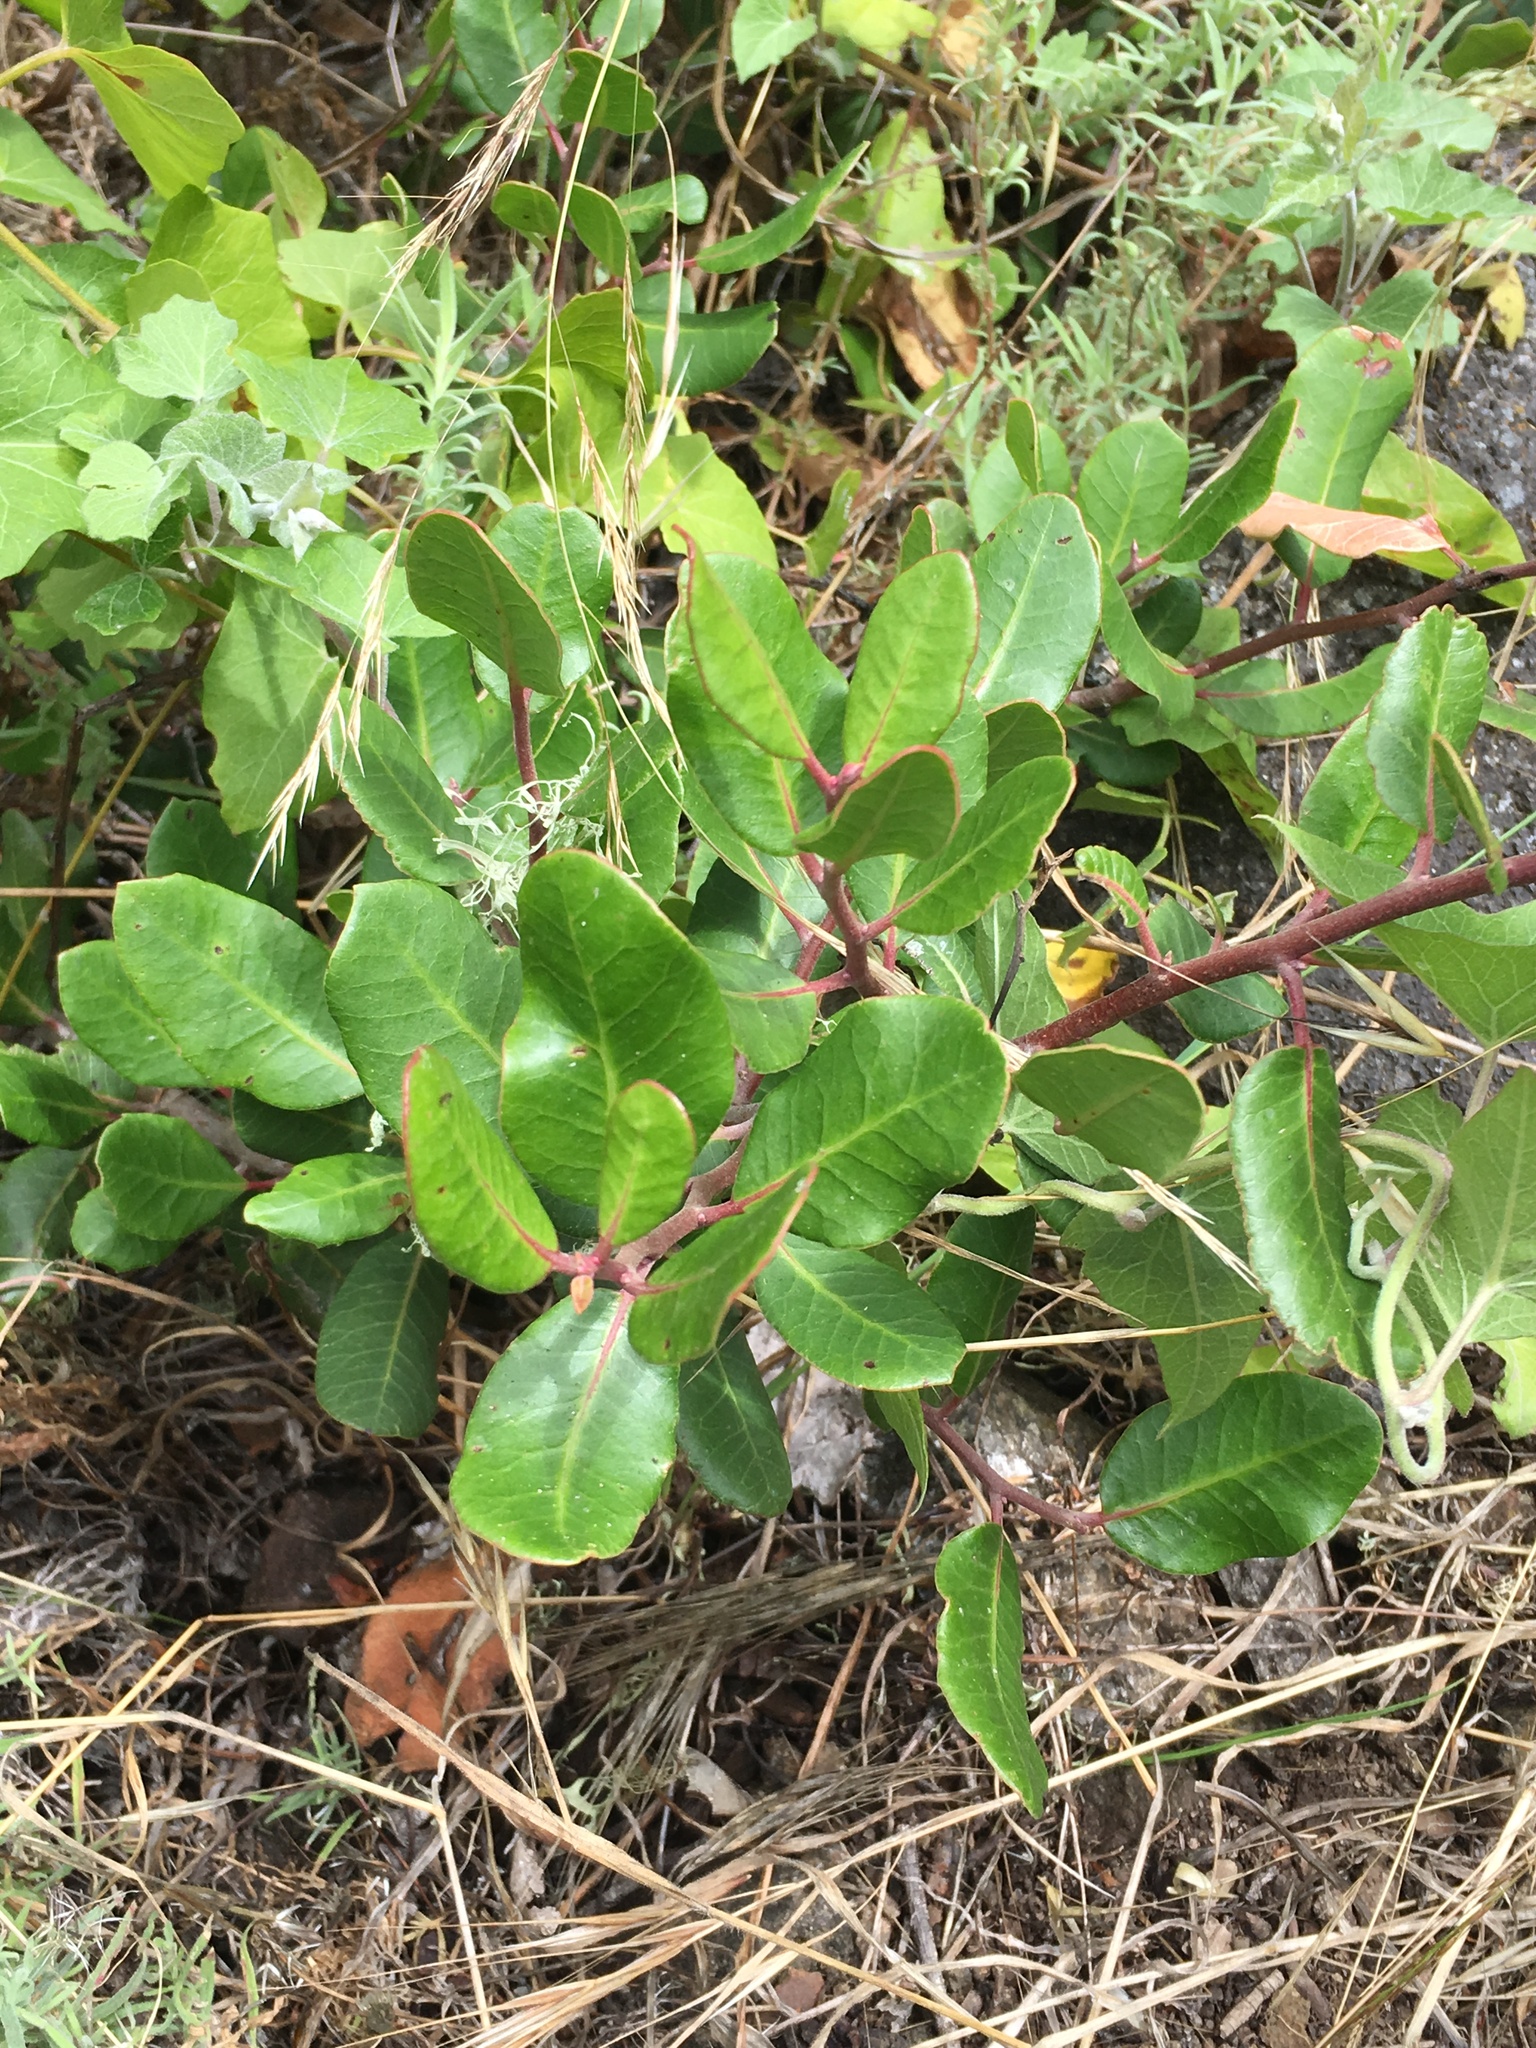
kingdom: Plantae
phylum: Tracheophyta
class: Magnoliopsida
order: Sapindales
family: Anacardiaceae
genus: Rhus
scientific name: Rhus integrifolia
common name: Lemonade sumac
